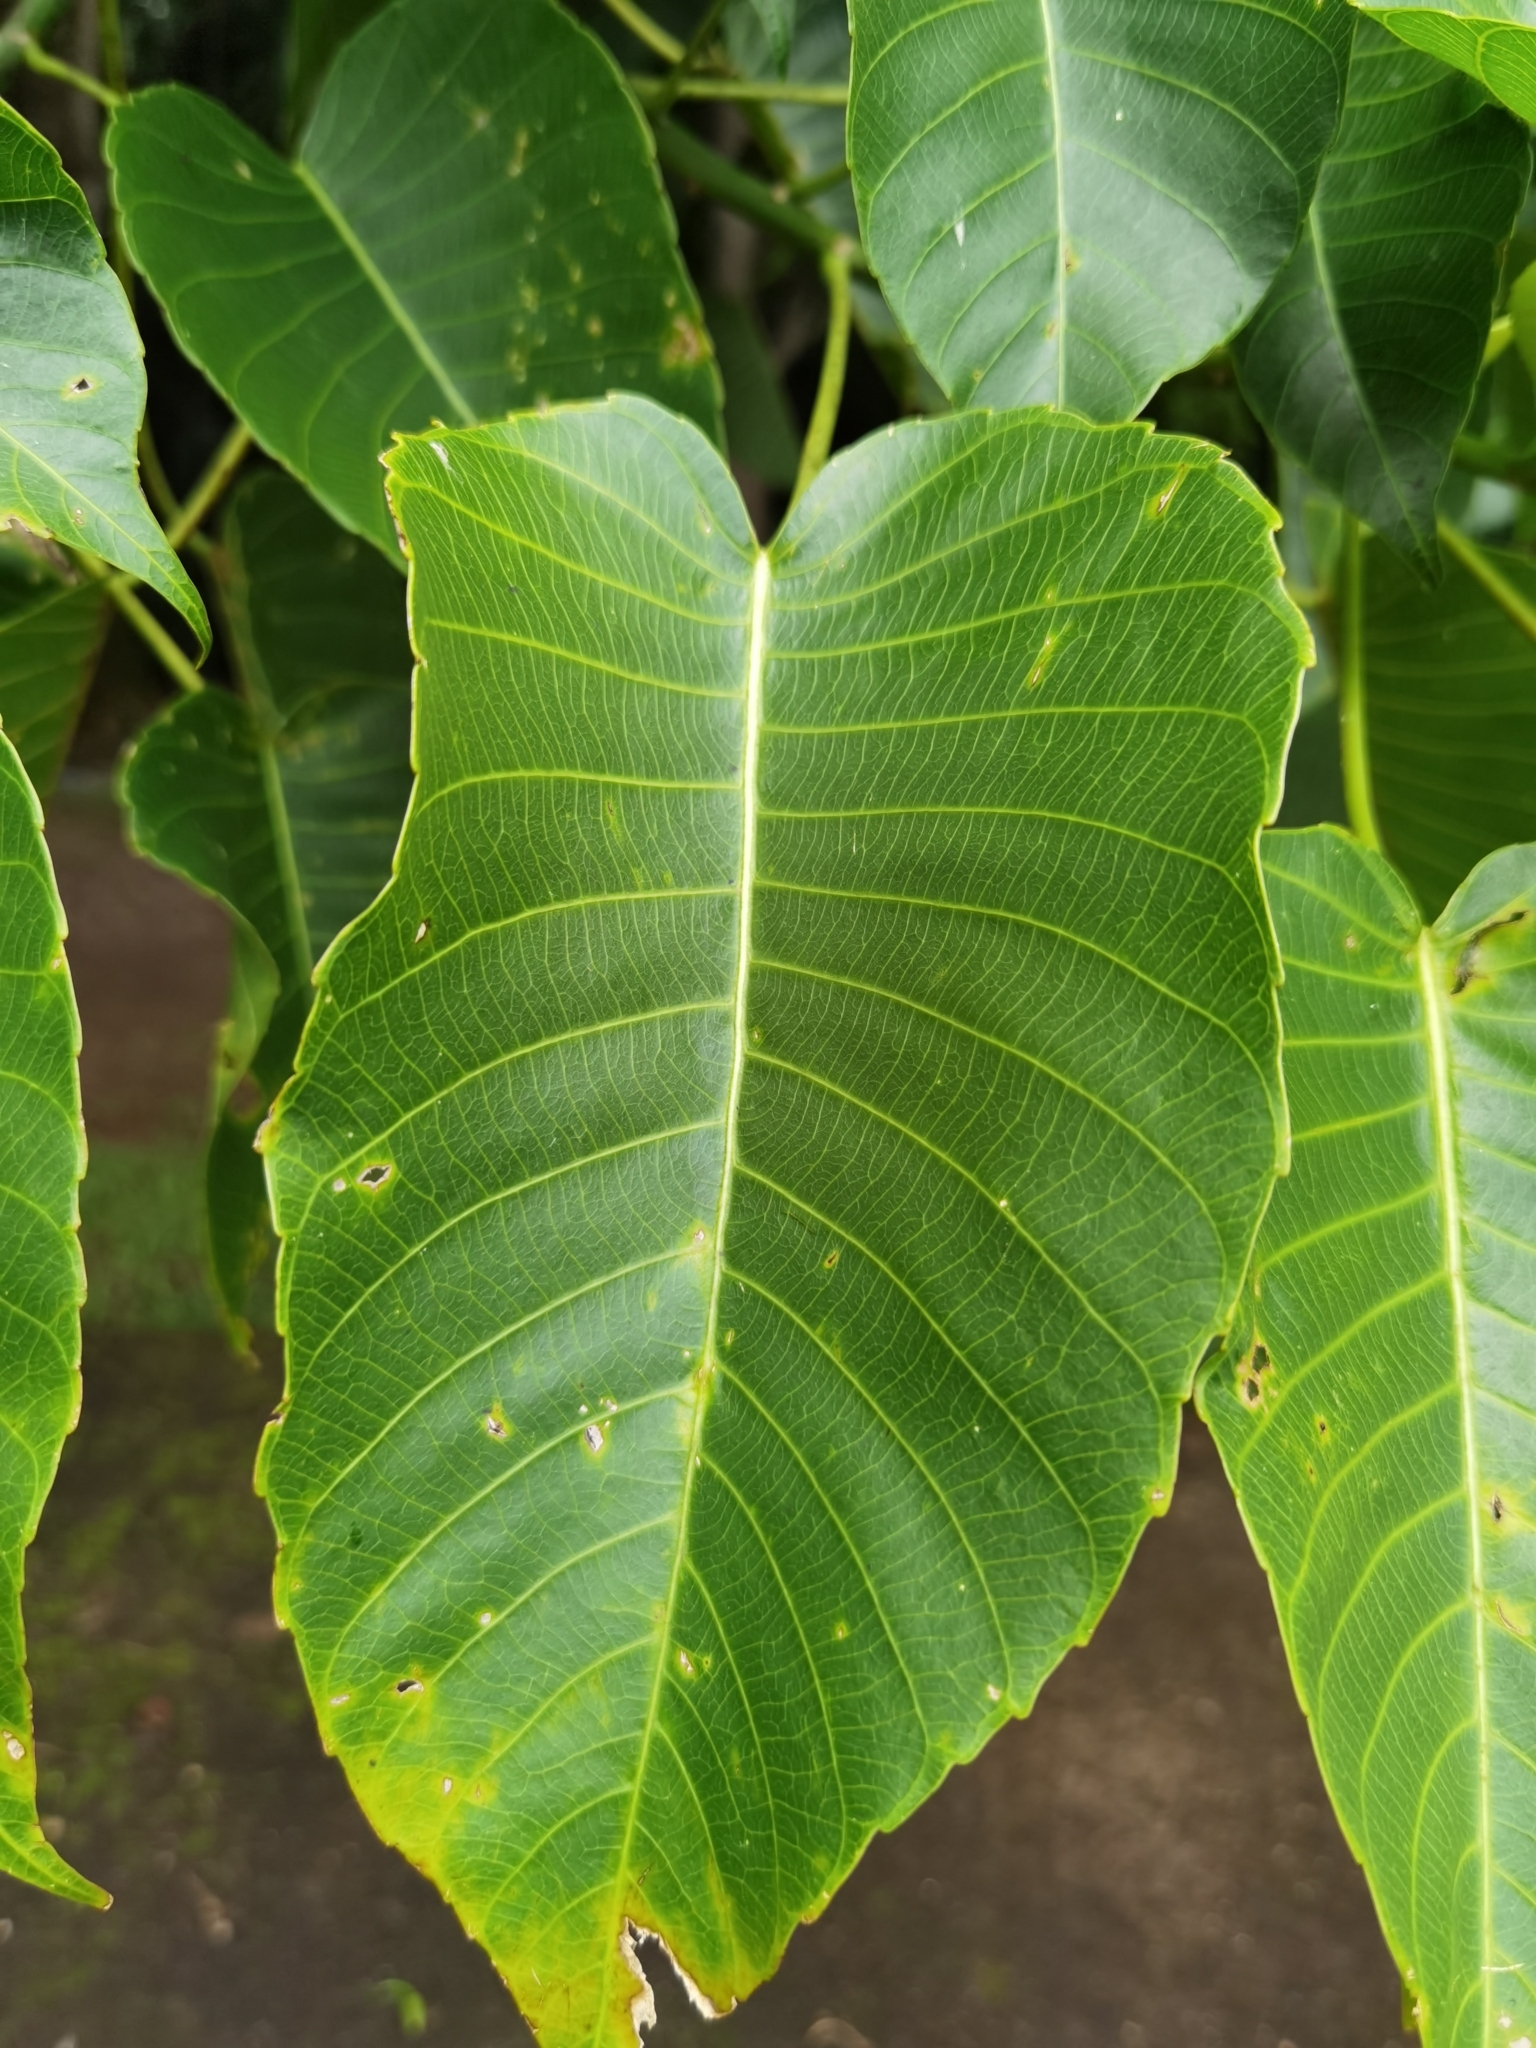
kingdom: Plantae
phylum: Tracheophyta
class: Magnoliopsida
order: Malpighiales
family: Euphorbiaceae
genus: Hura
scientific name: Hura crepitans
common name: Sandboxtree
